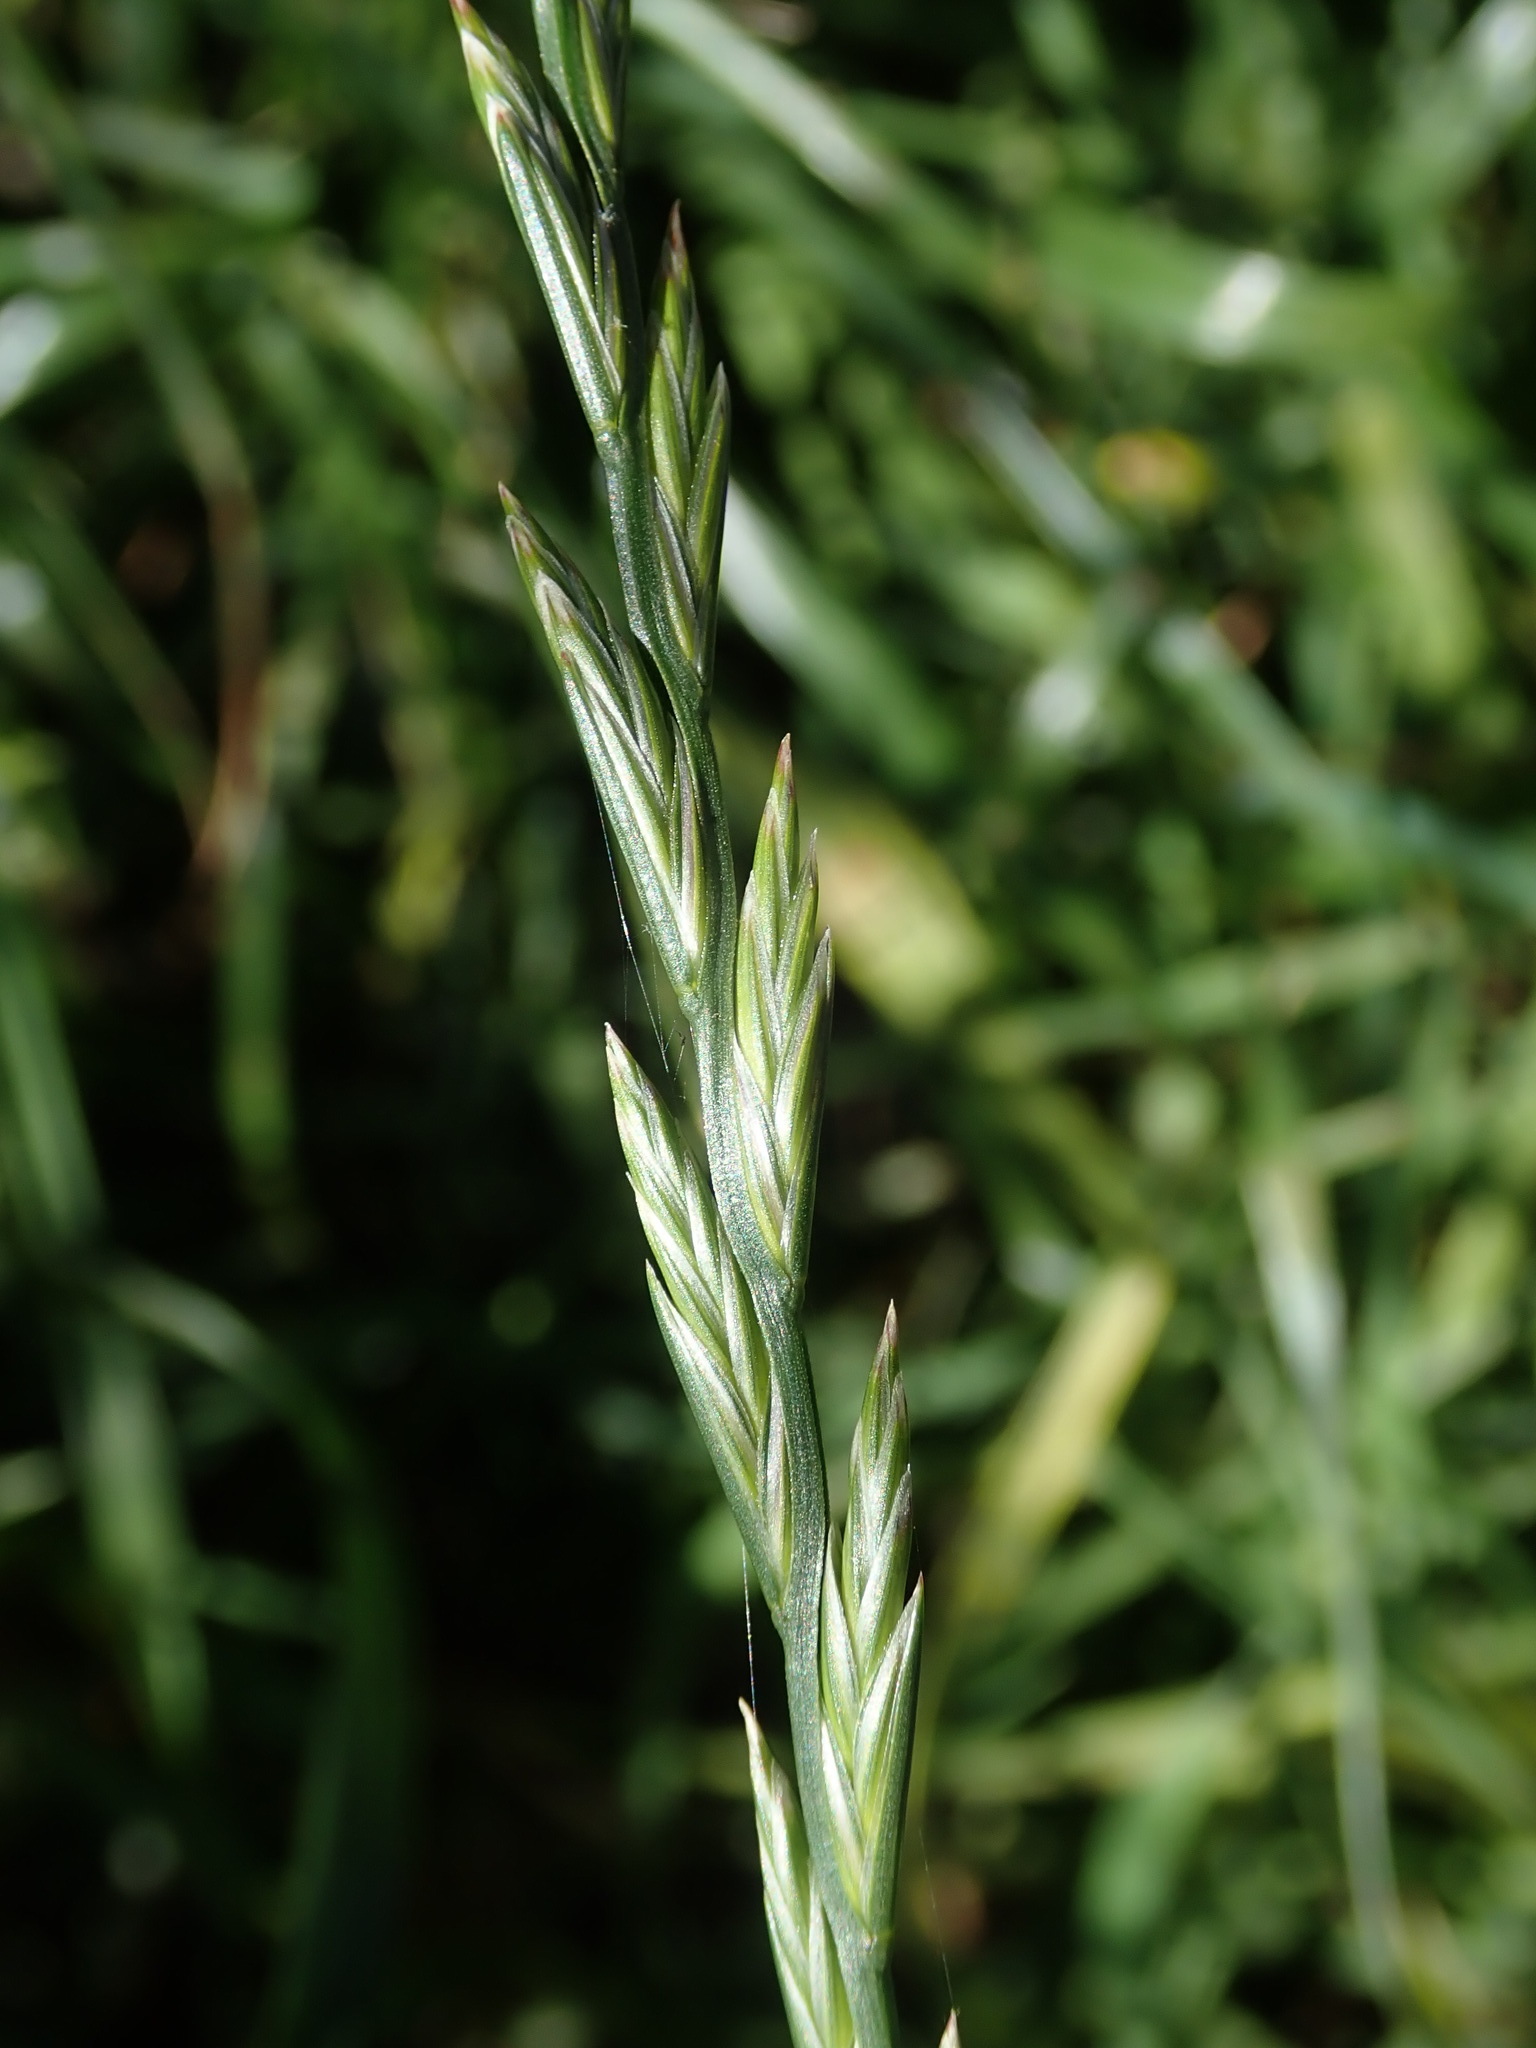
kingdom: Plantae
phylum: Tracheophyta
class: Liliopsida
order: Poales
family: Poaceae
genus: Lolium
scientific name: Lolium perenne
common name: Perennial ryegrass
